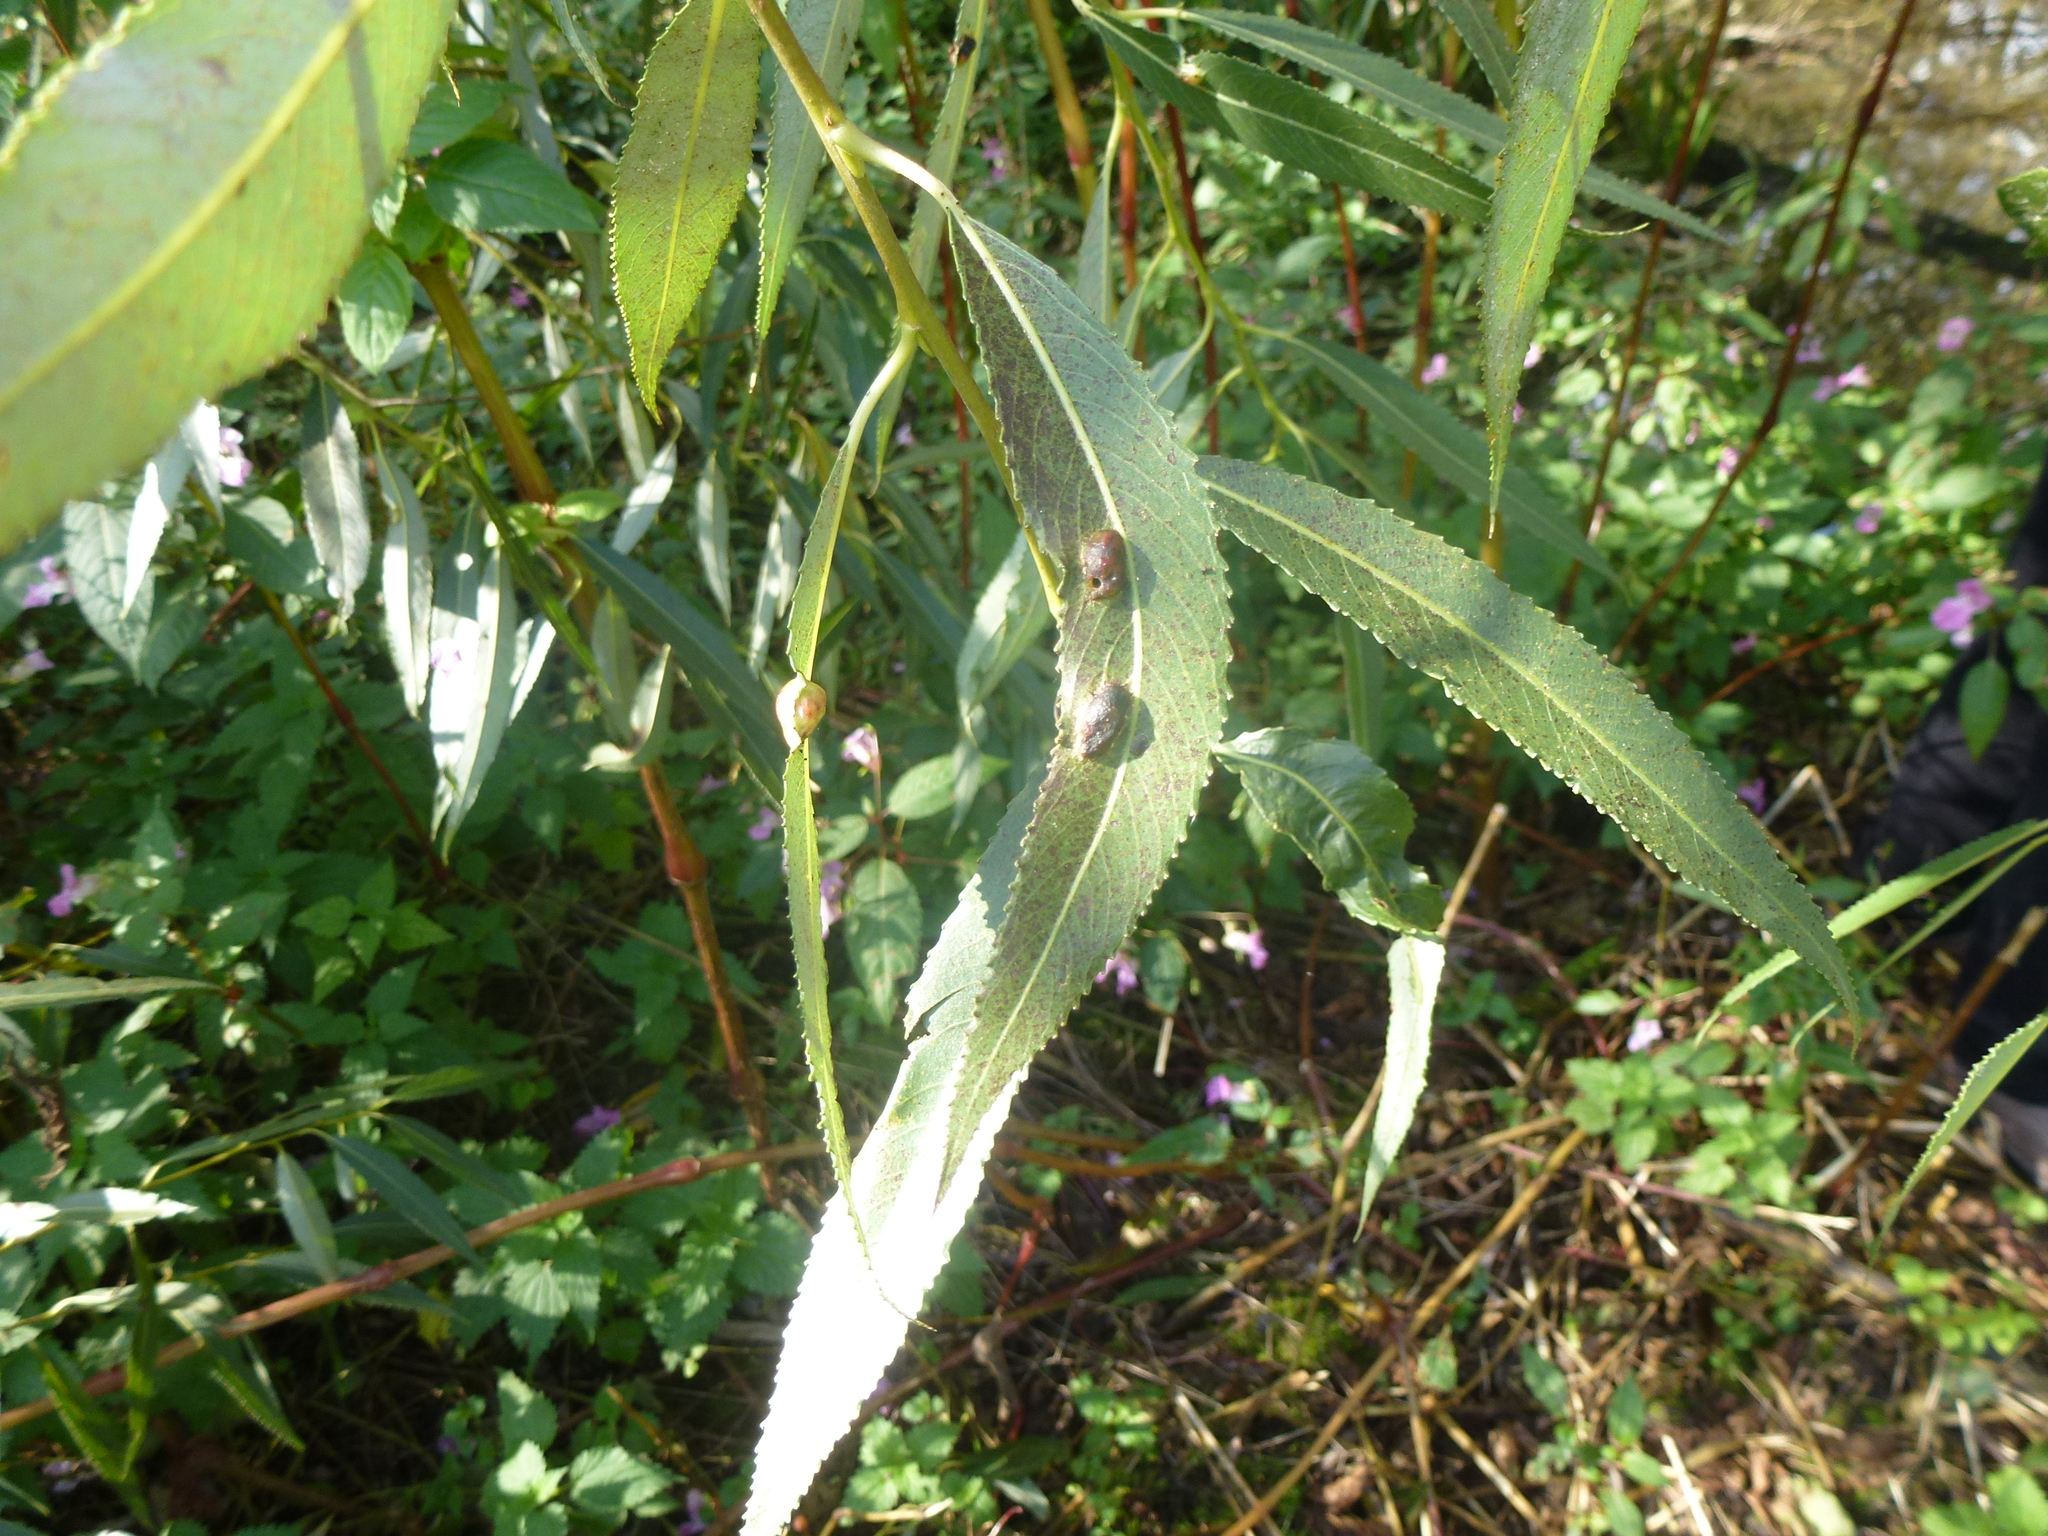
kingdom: Animalia
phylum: Arthropoda
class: Insecta
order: Hymenoptera
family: Tenthredinidae
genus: Pontania
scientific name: Pontania proxima
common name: Common sawfly
